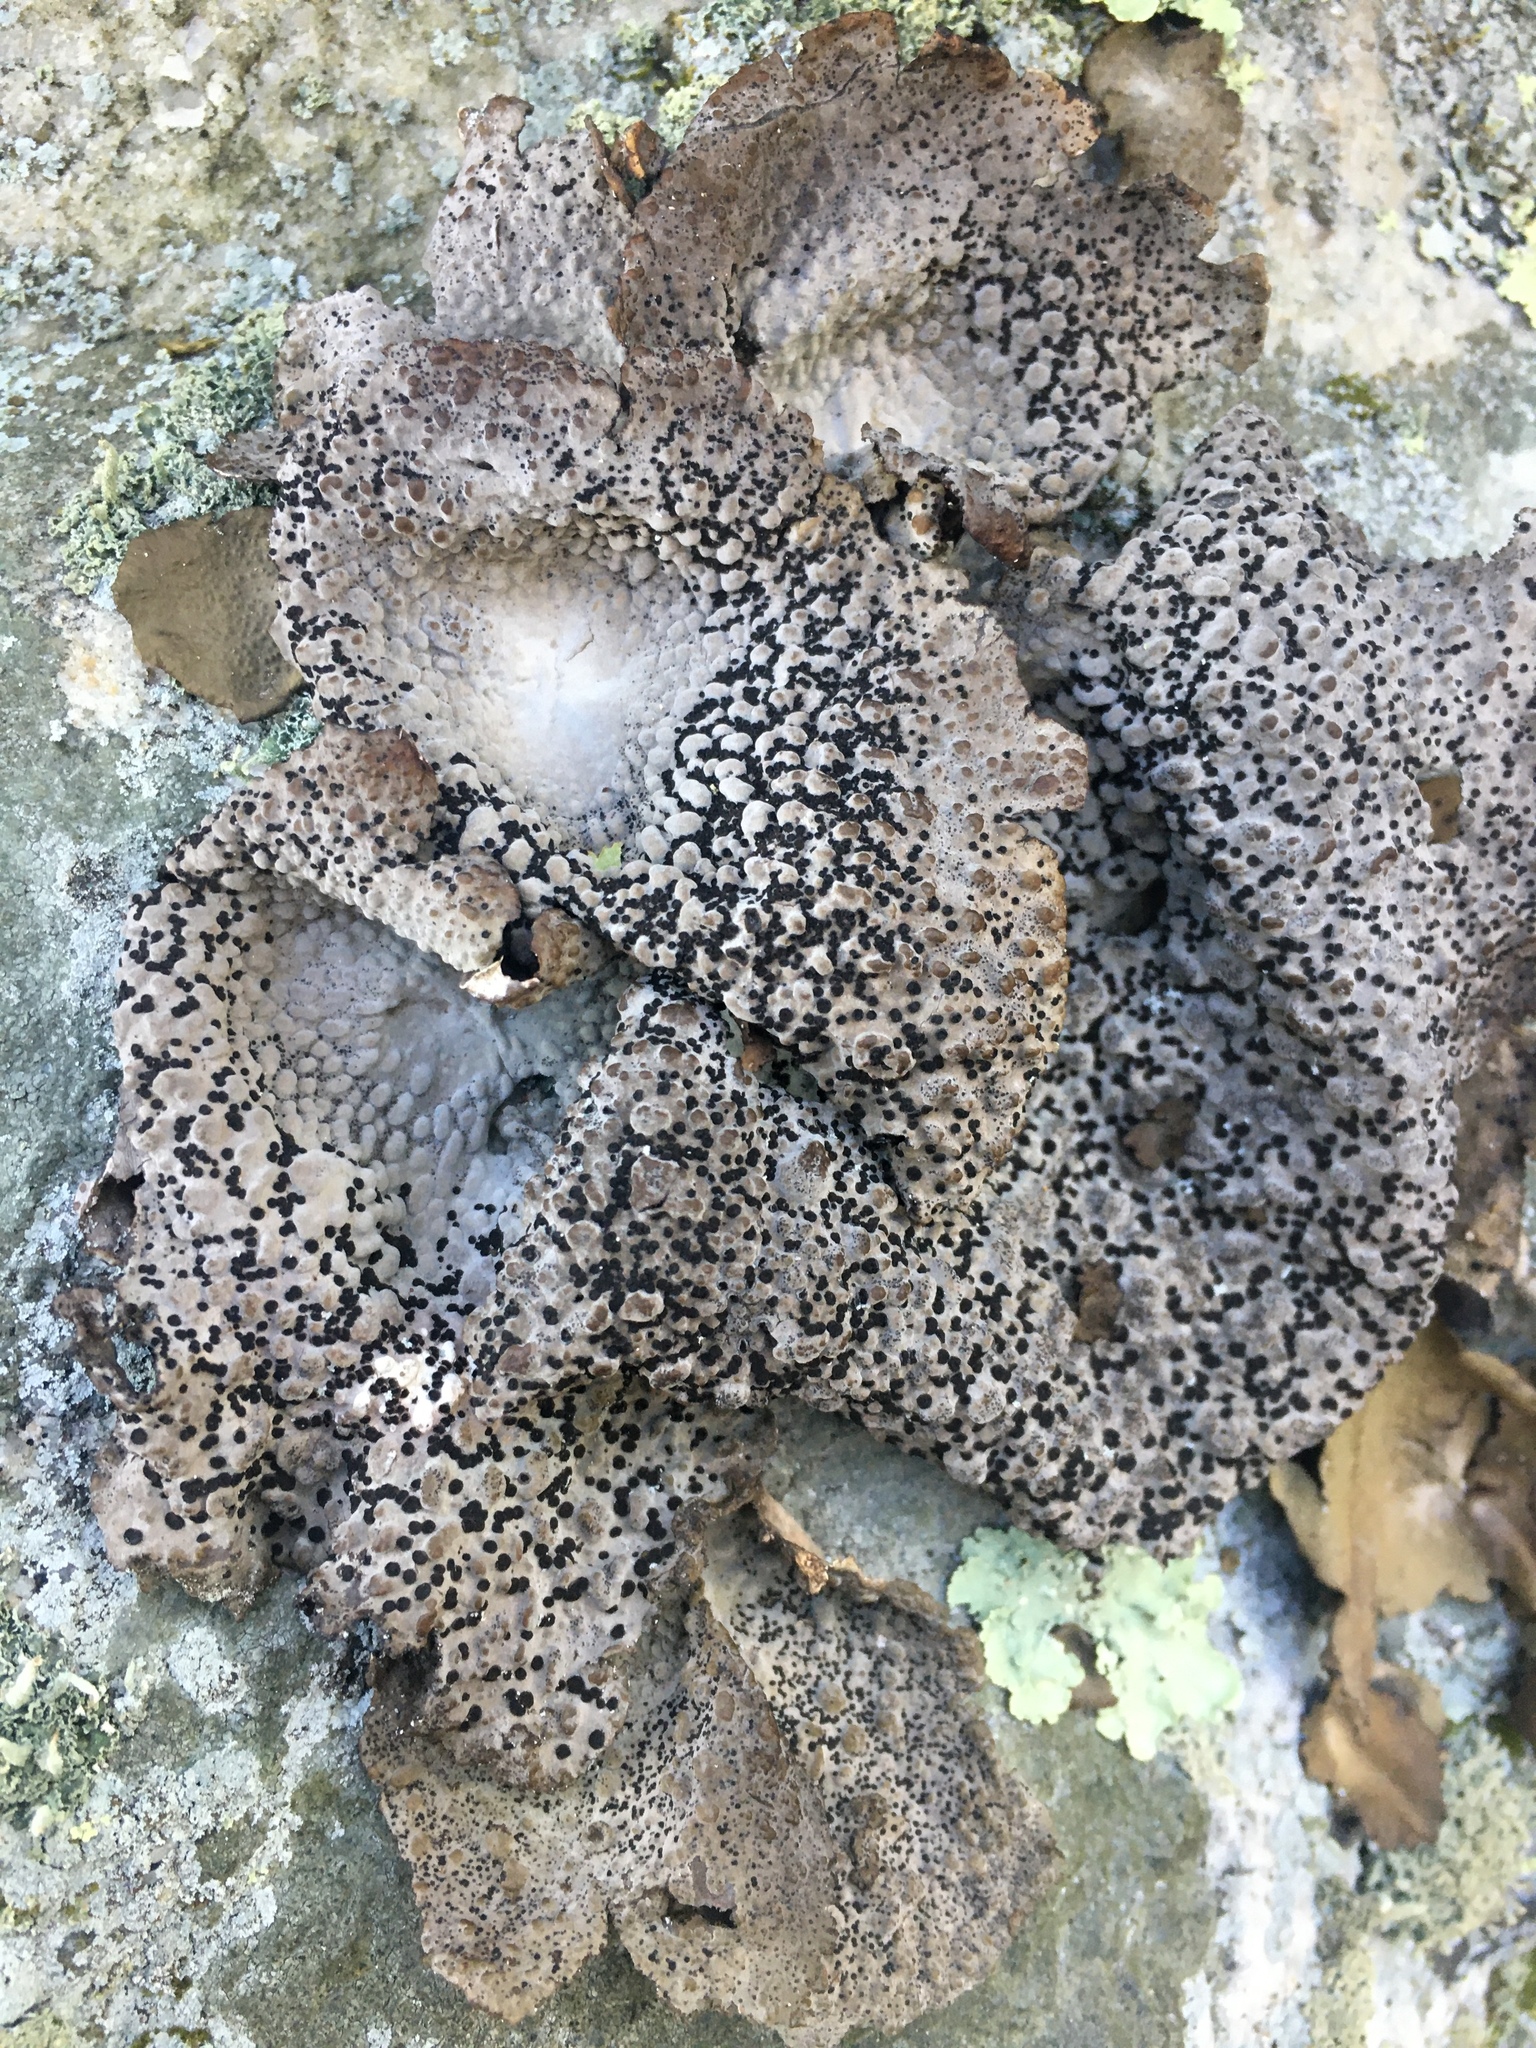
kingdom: Fungi
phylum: Ascomycota
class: Lecanoromycetes
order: Umbilicariales
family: Umbilicariaceae
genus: Lasallia
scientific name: Lasallia papulosa
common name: Common toadskin lichen
